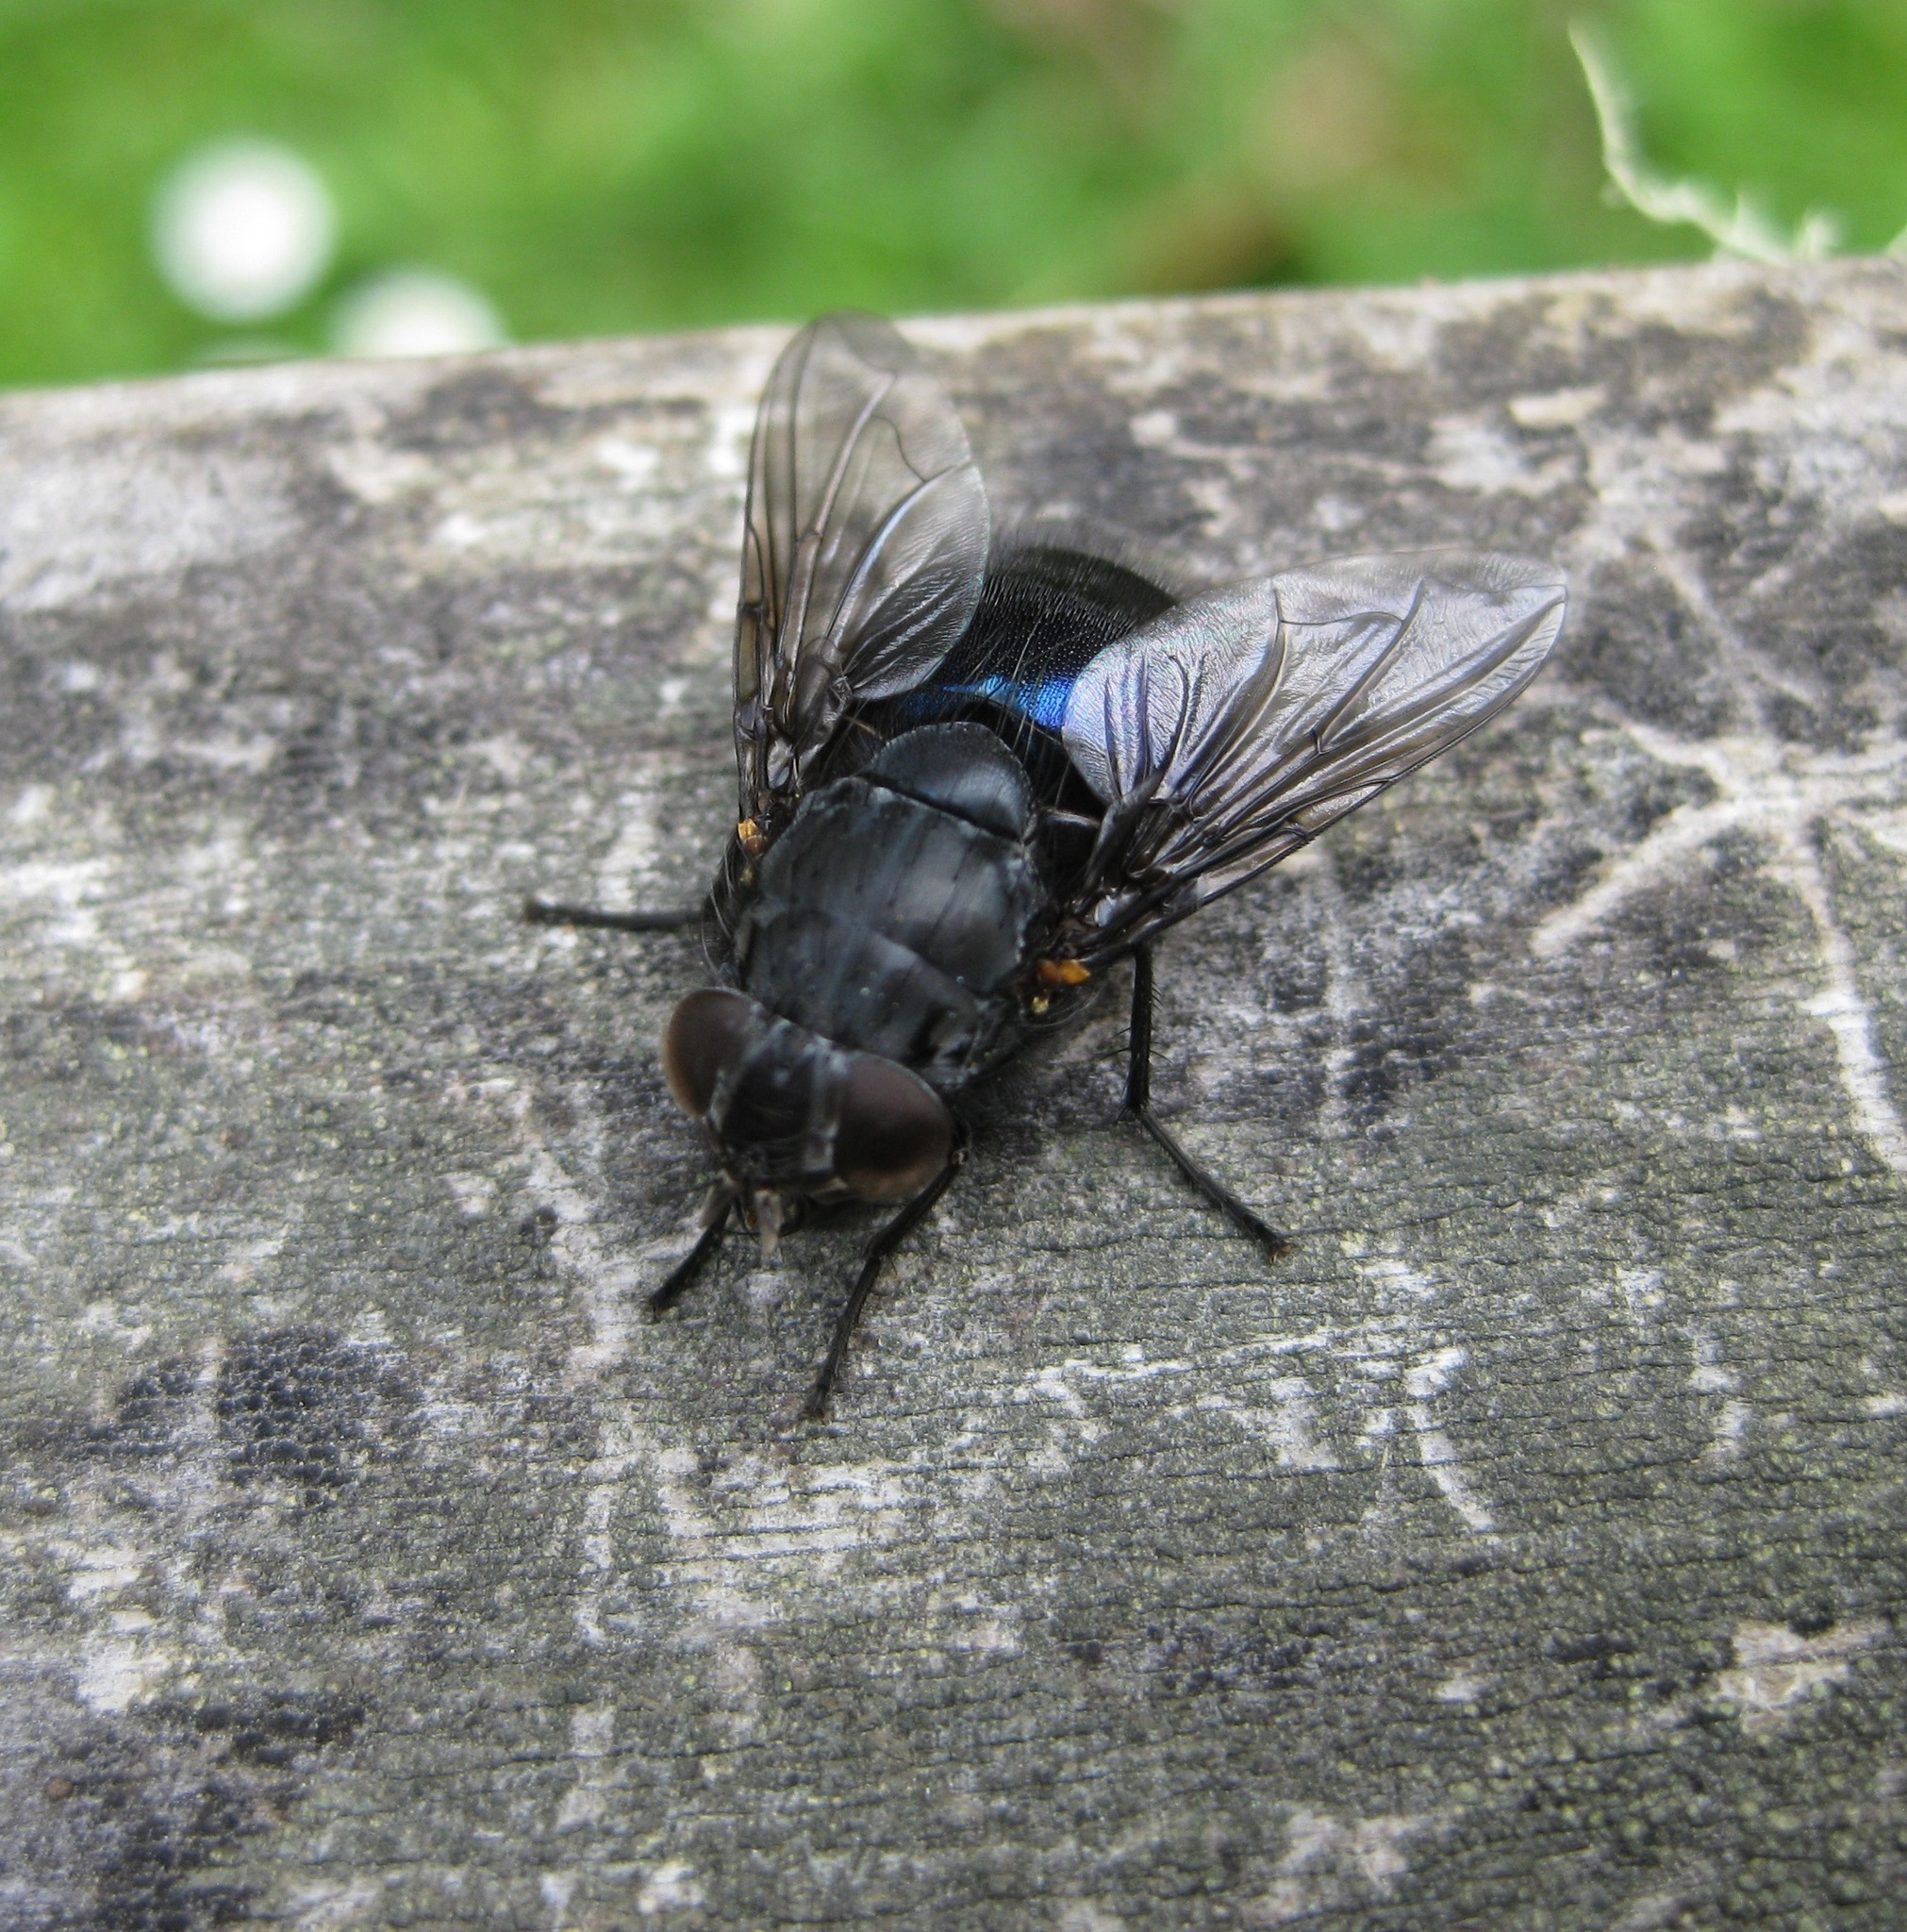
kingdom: Animalia
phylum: Arthropoda
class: Insecta
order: Diptera
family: Calliphoridae
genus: Calliphora
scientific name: Calliphora quadrimaculata
